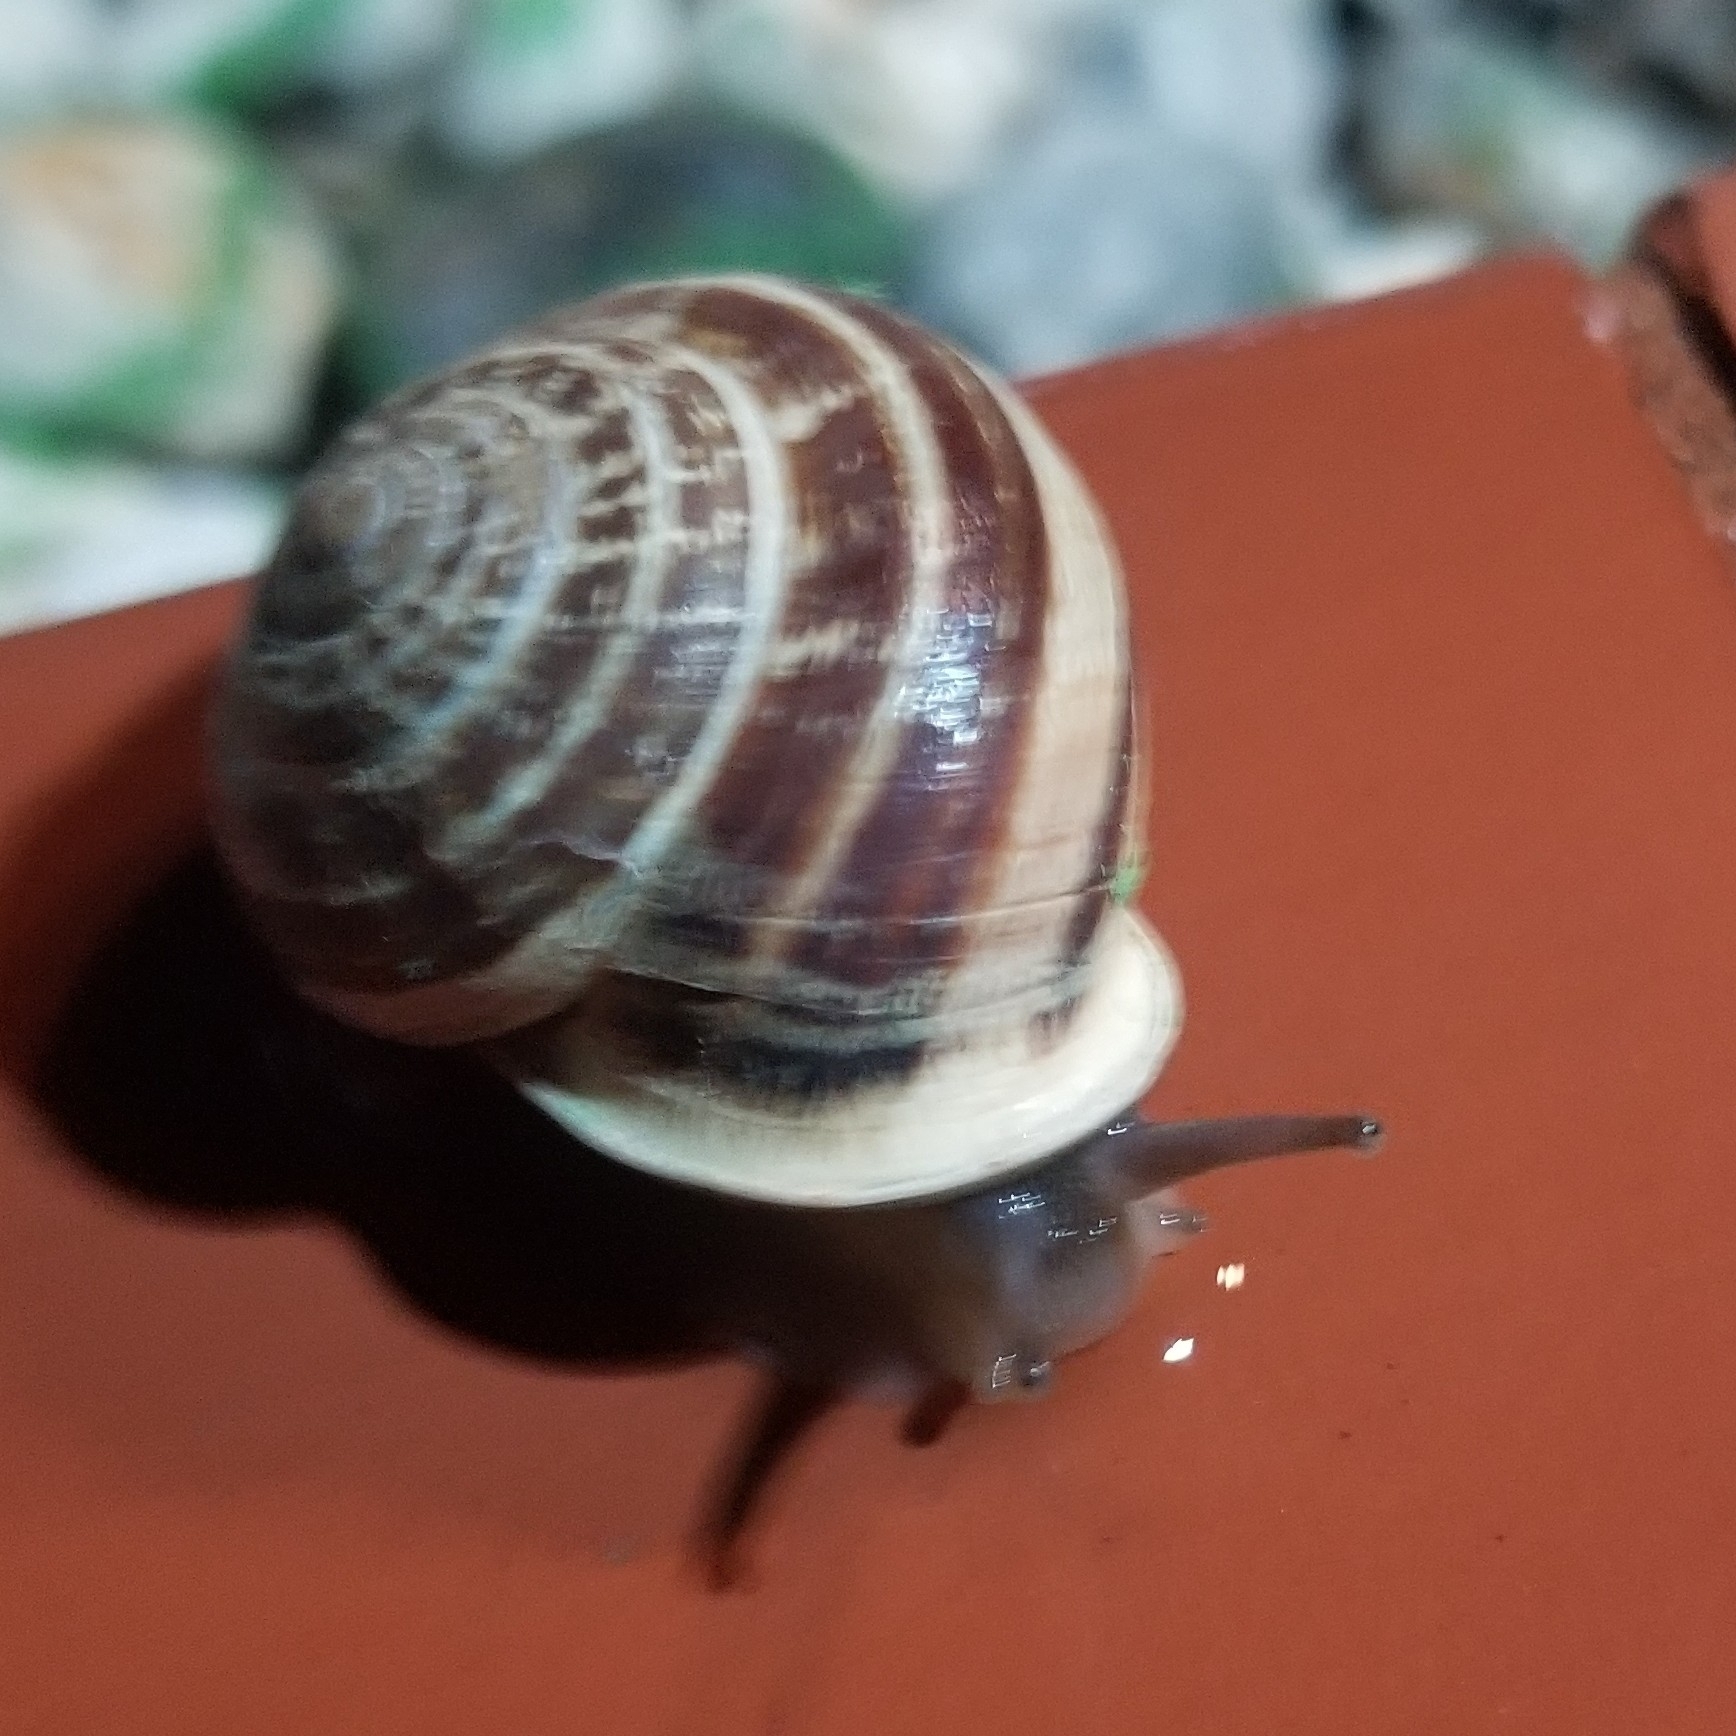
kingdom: Animalia
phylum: Mollusca
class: Gastropoda
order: Stylommatophora
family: Helicidae
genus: Eobania
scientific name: Eobania vermiculata
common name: Chocolateband snail
